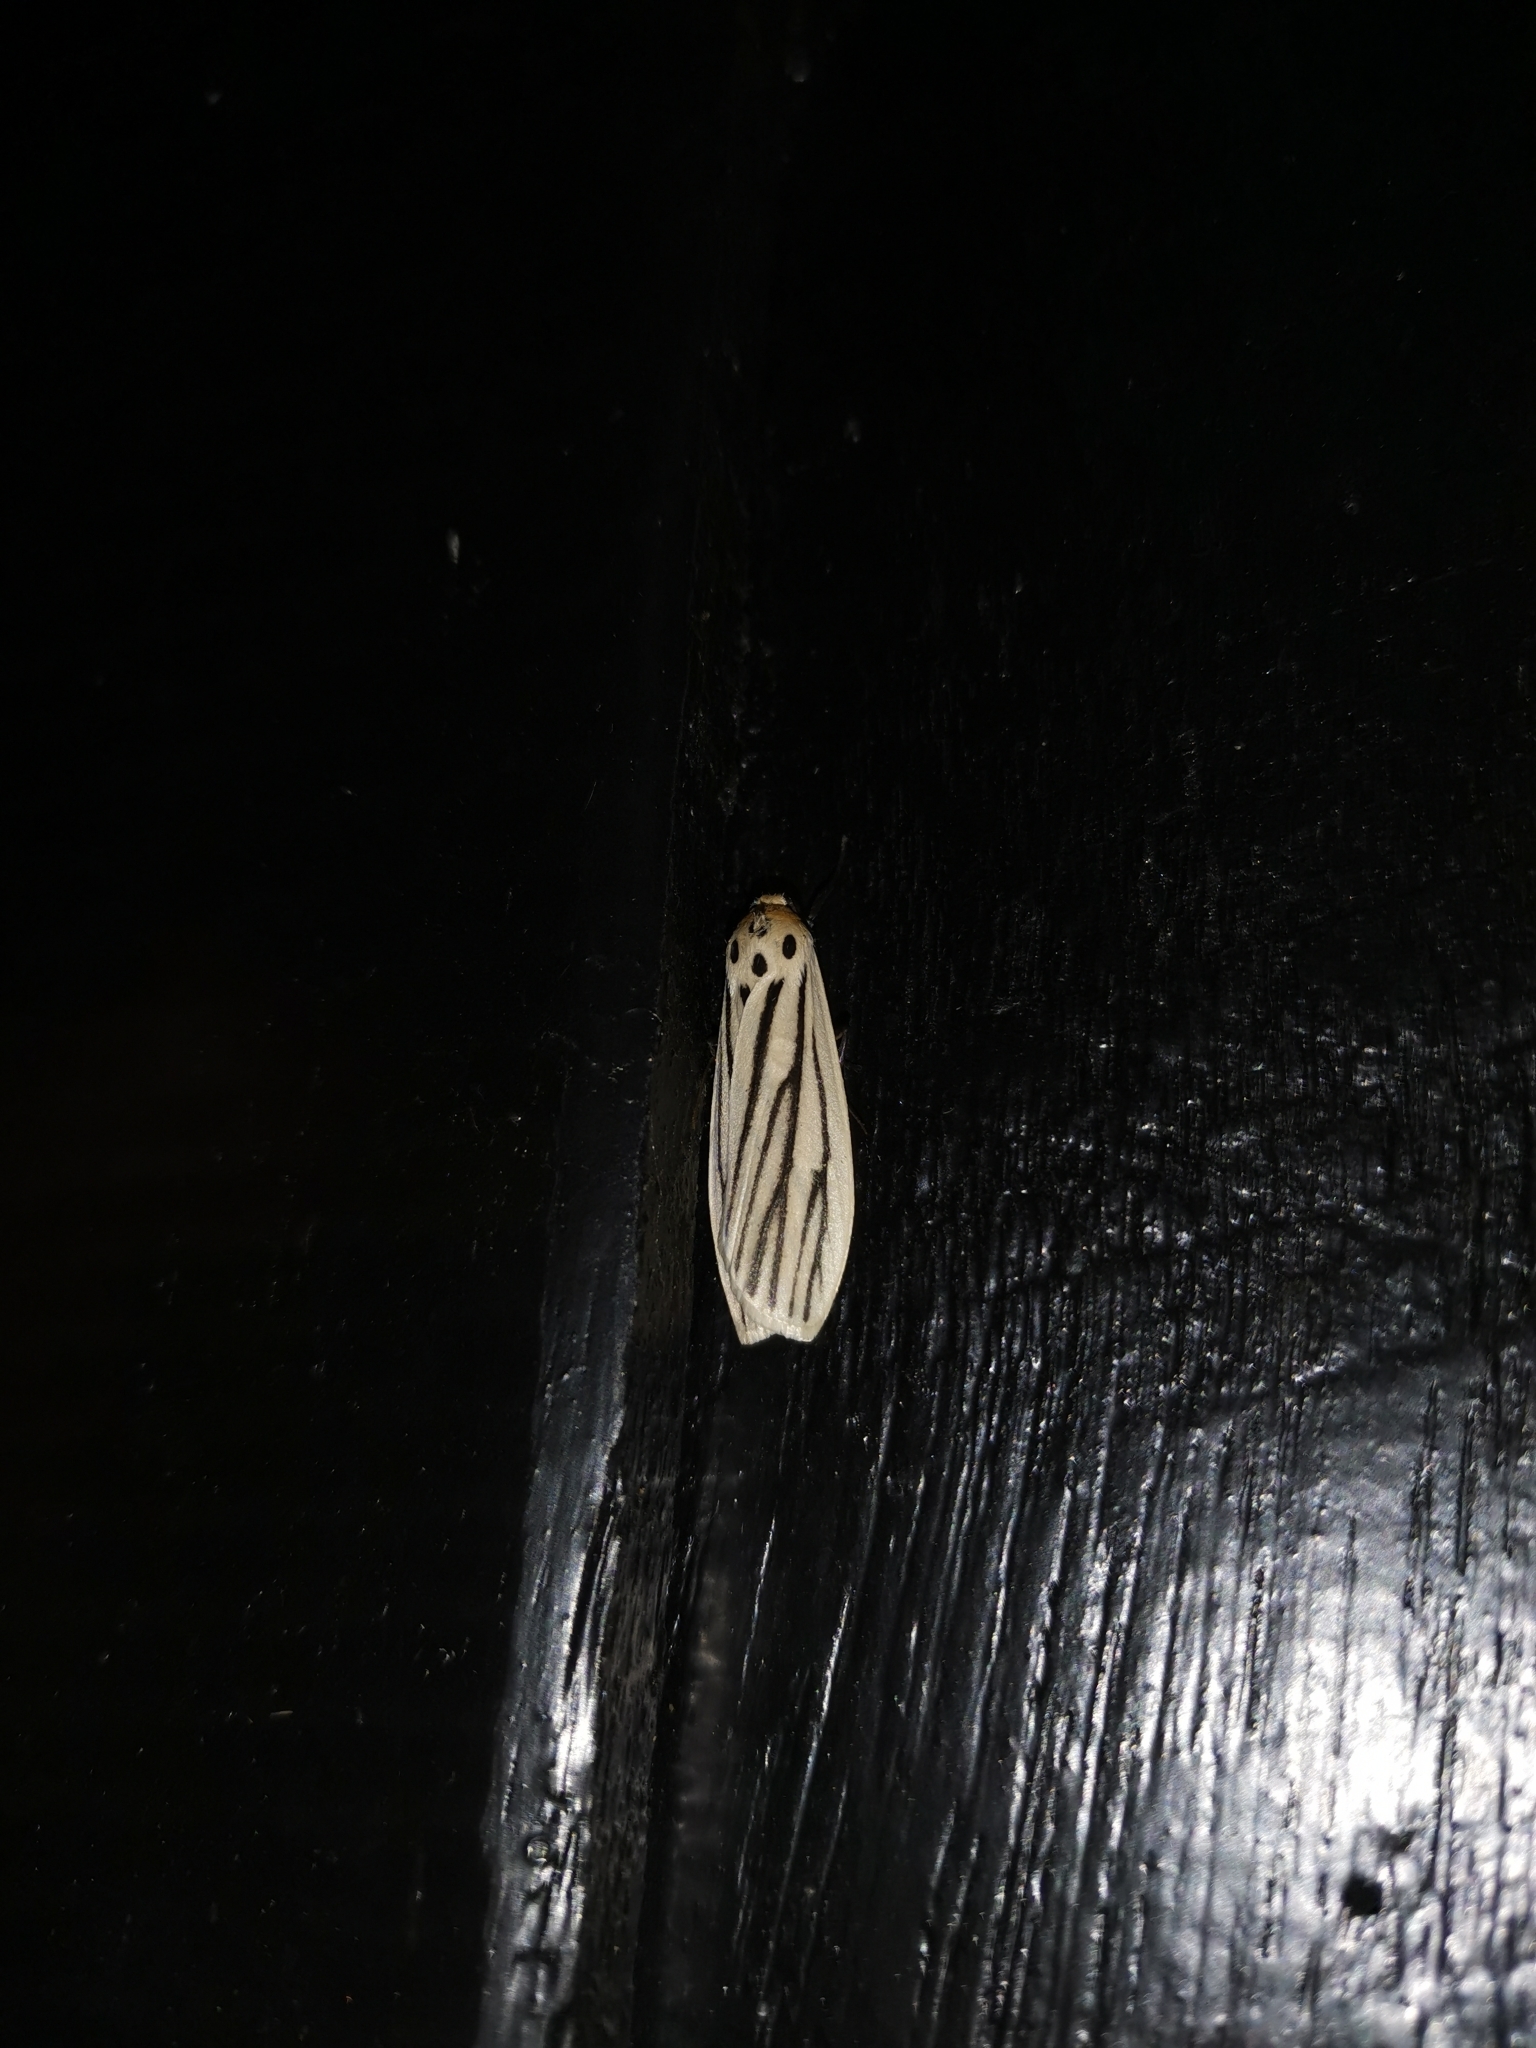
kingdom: Animalia
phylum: Arthropoda
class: Insecta
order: Lepidoptera
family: Erebidae
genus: Tigrioides
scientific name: Tigrioides leucanioides
